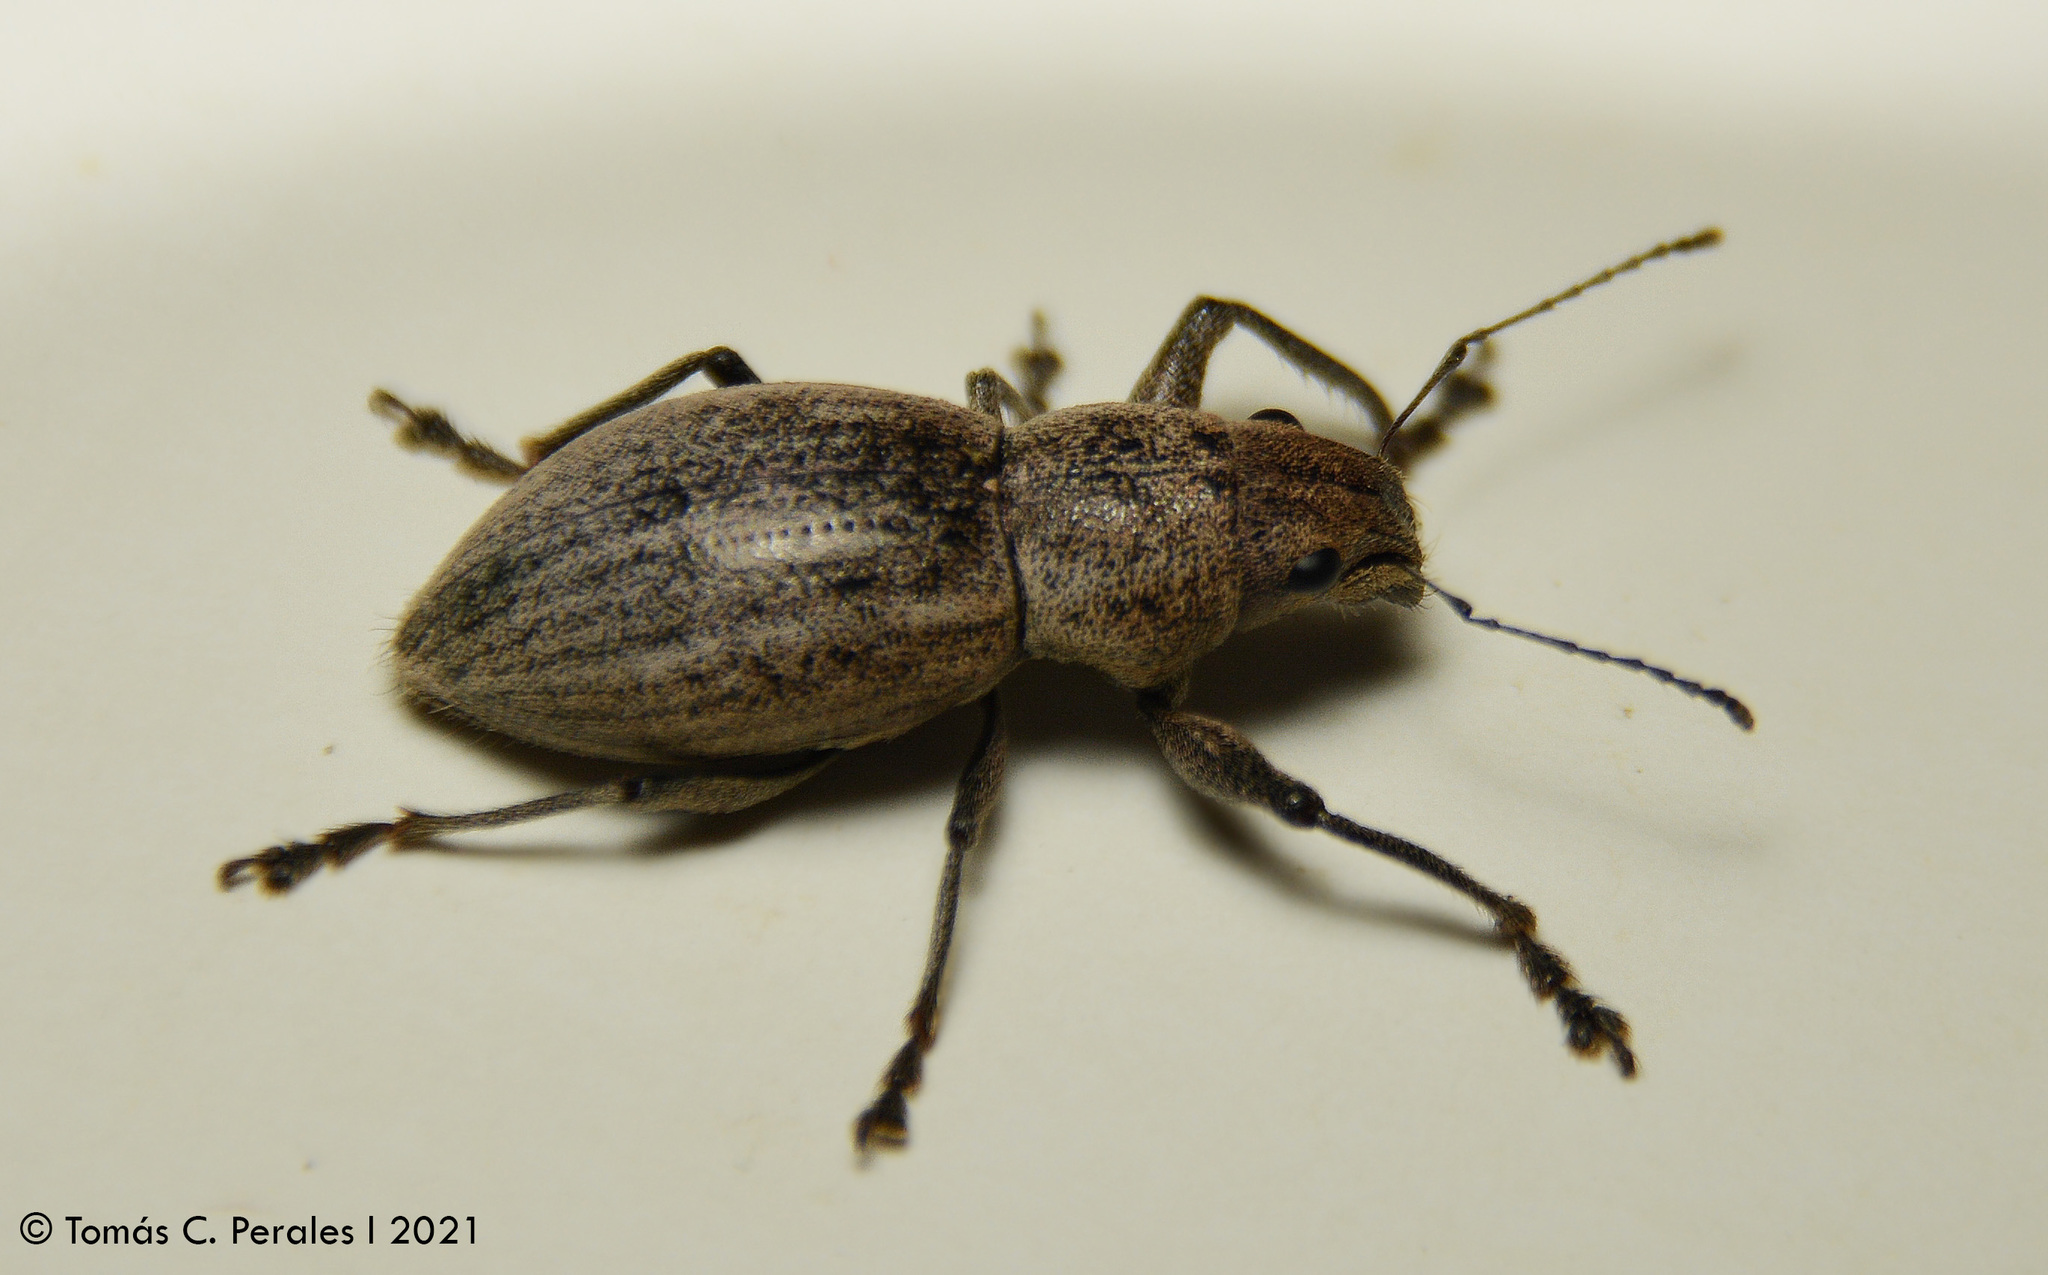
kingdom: Animalia
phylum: Arthropoda
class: Insecta
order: Coleoptera
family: Curculionidae
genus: Naupactus
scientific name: Naupactus purpureoviolaceus
